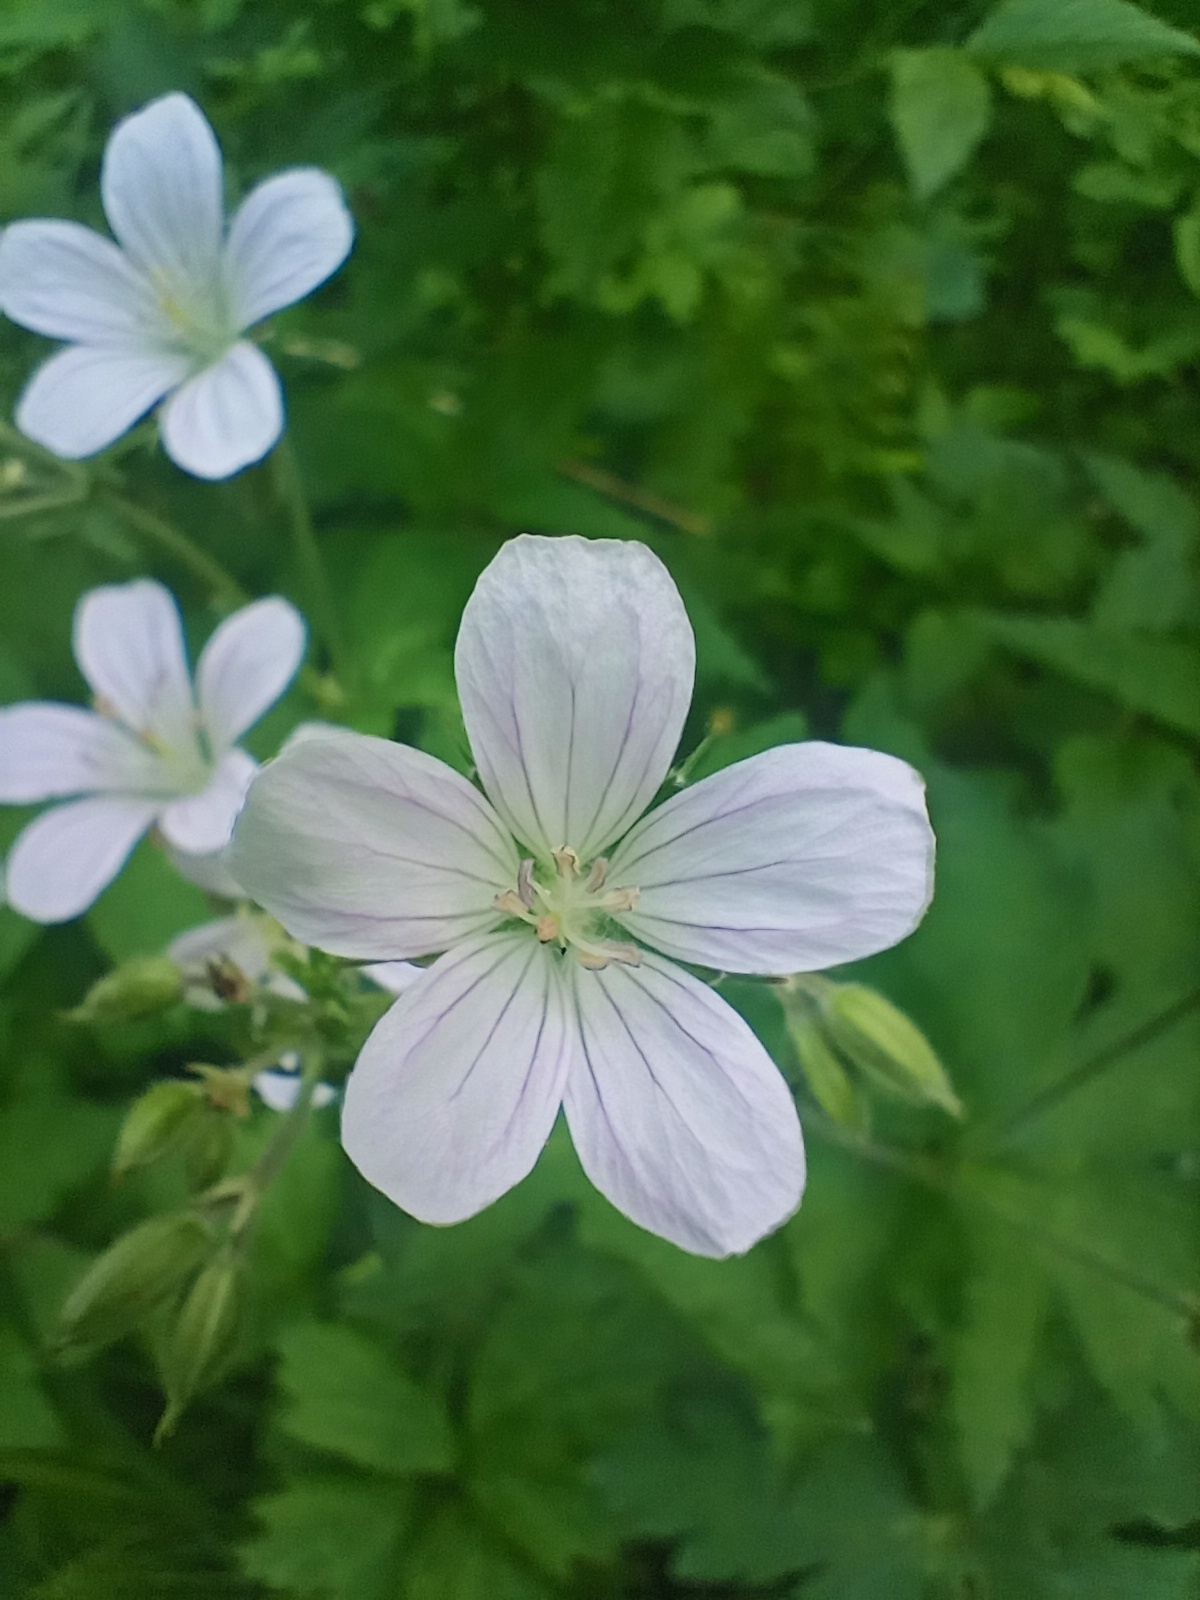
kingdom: Plantae
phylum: Tracheophyta
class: Magnoliopsida
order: Geraniales
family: Geraniaceae
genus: Geranium
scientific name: Geranium sylvaticum
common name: Wood crane's-bill
